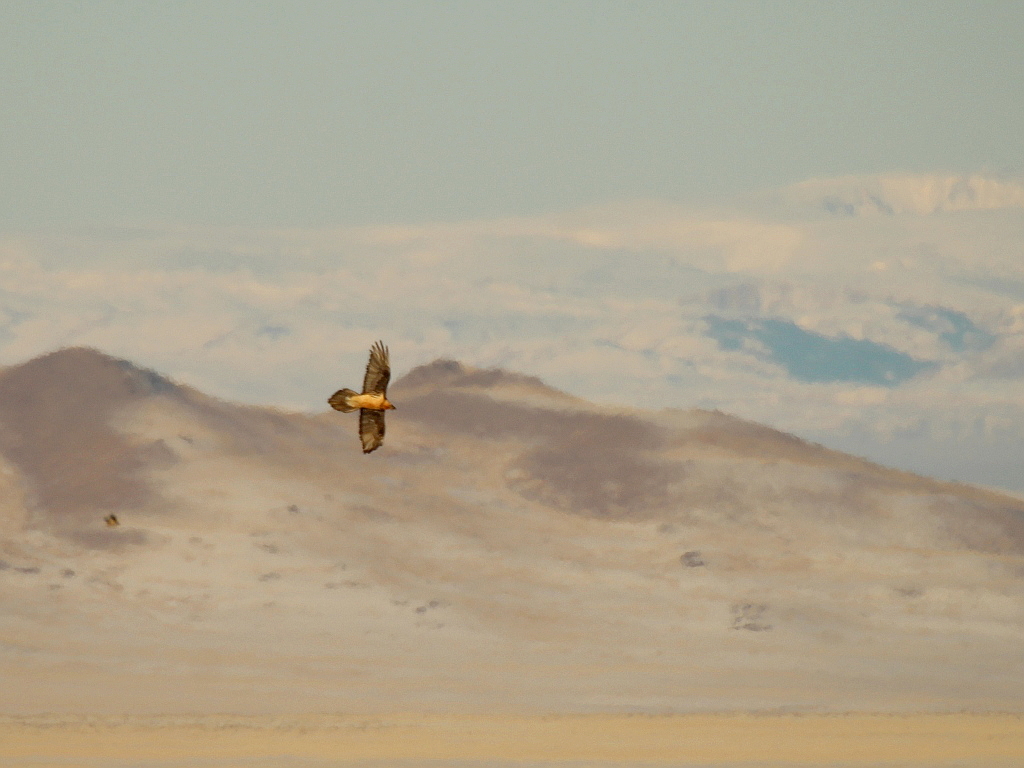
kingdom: Animalia
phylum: Chordata
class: Aves
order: Accipitriformes
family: Accipitridae
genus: Gypaetus
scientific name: Gypaetus barbatus
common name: Bearded vulture
